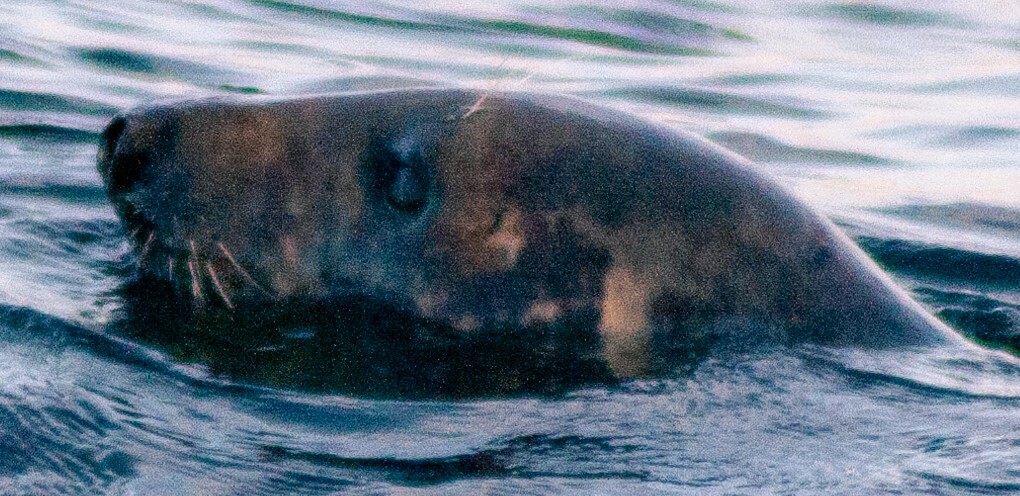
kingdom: Animalia
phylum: Chordata
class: Mammalia
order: Carnivora
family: Phocidae
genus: Halichoerus
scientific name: Halichoerus grypus
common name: Grey seal
